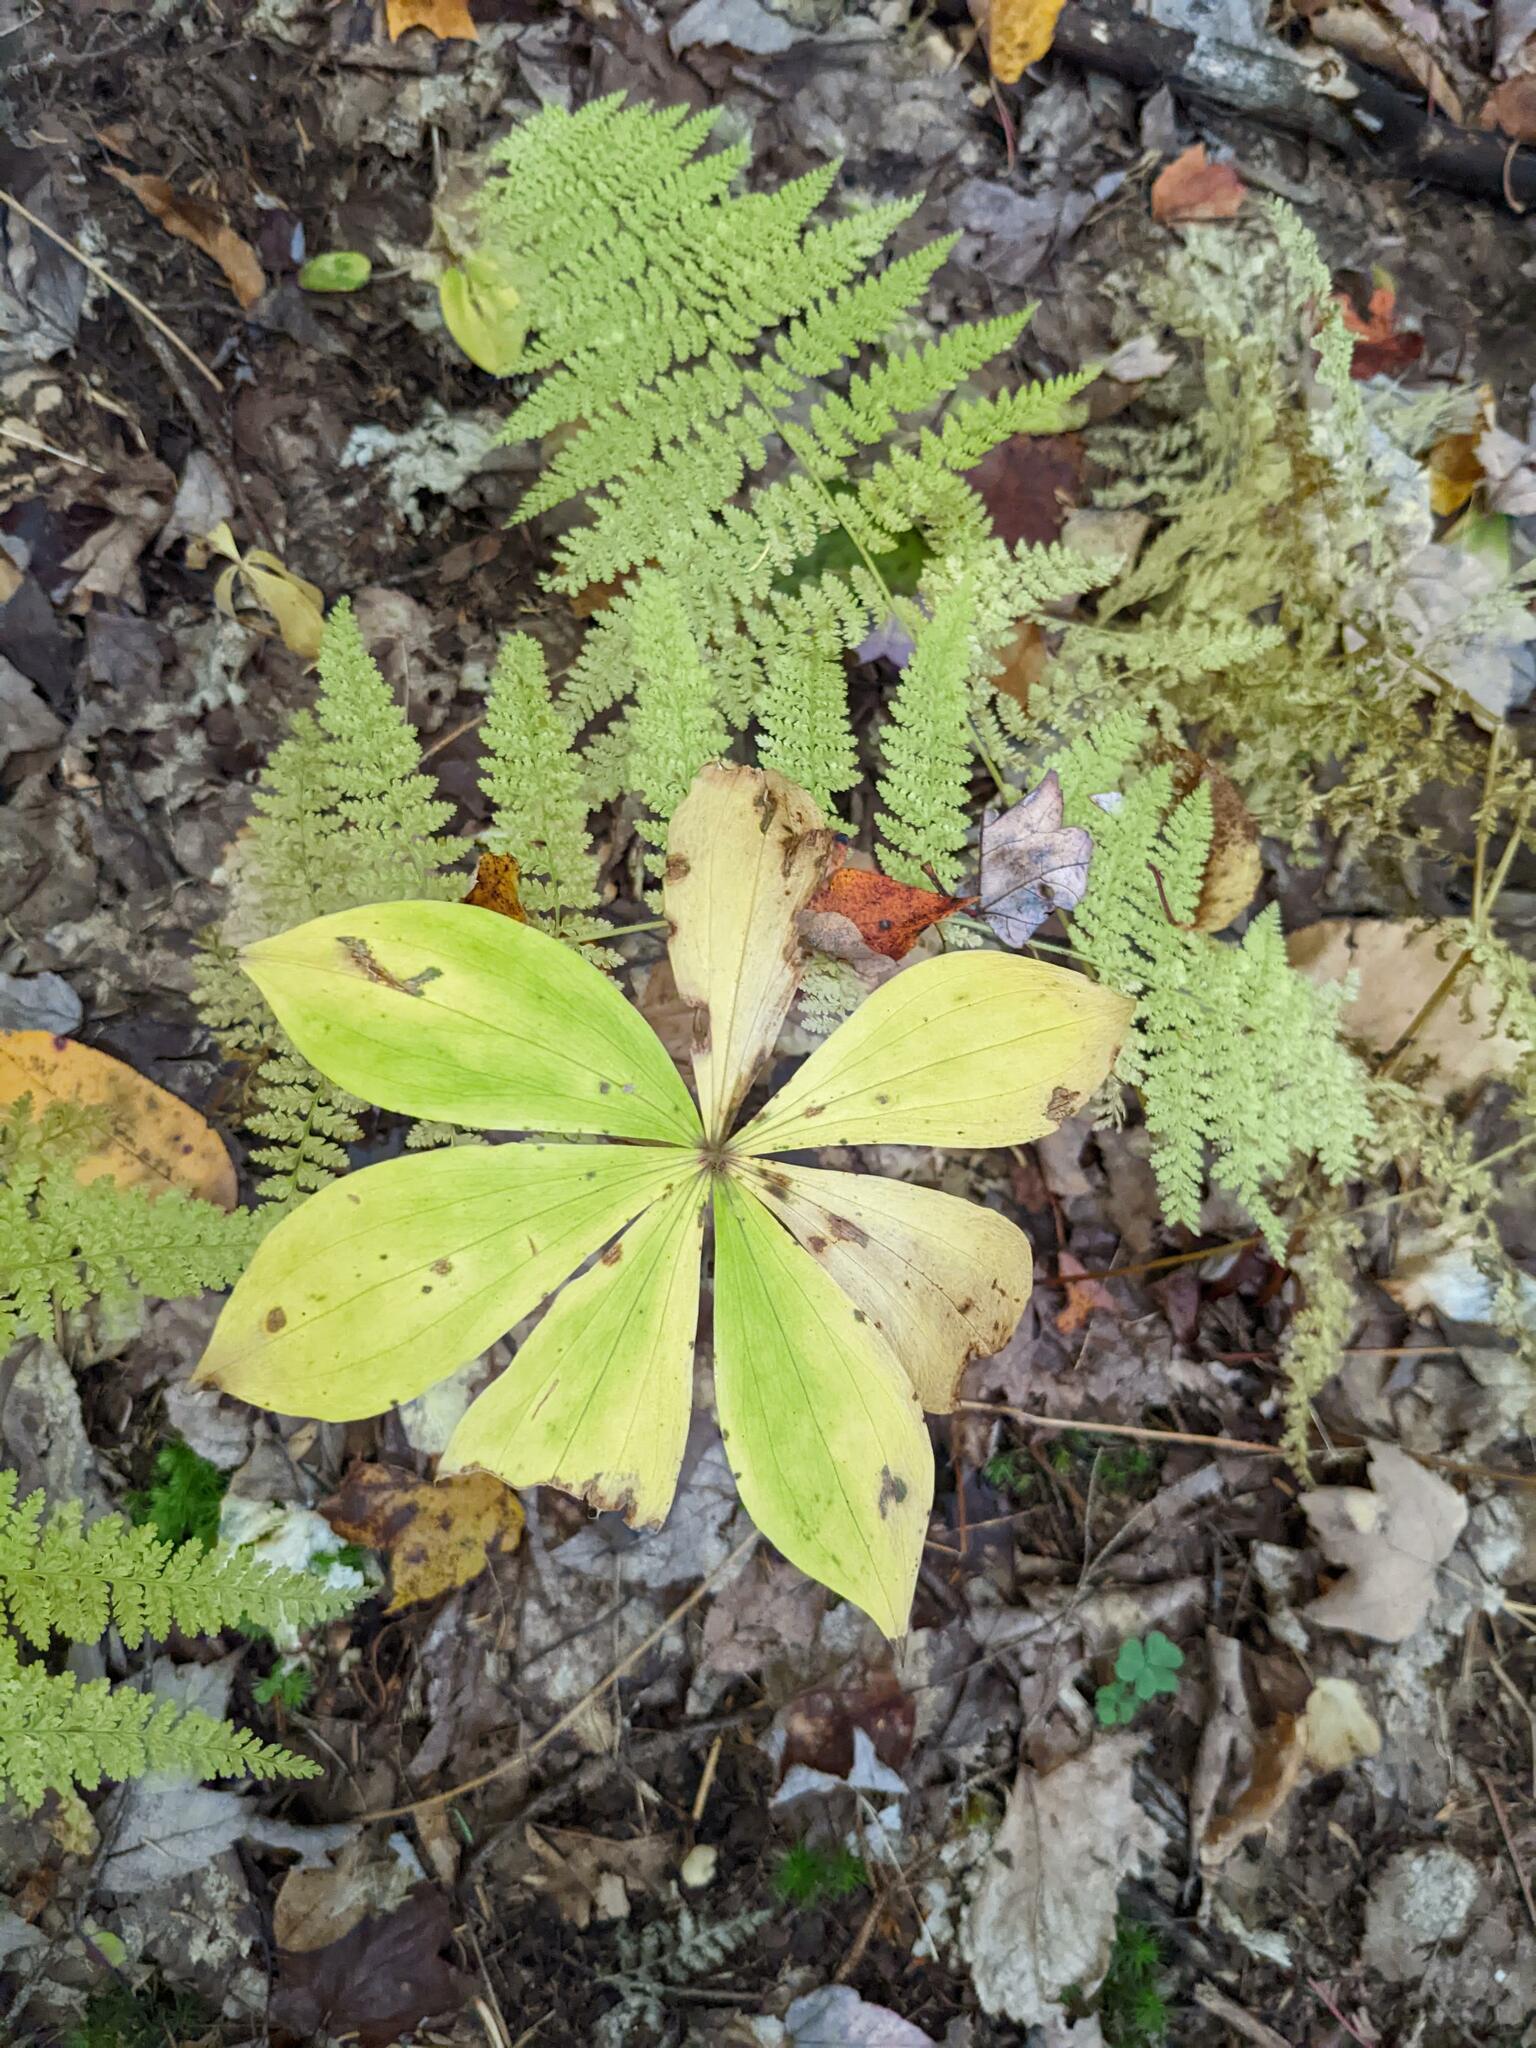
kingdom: Plantae
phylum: Tracheophyta
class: Liliopsida
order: Liliales
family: Liliaceae
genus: Medeola
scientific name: Medeola virginiana
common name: Indian cucumber-root
